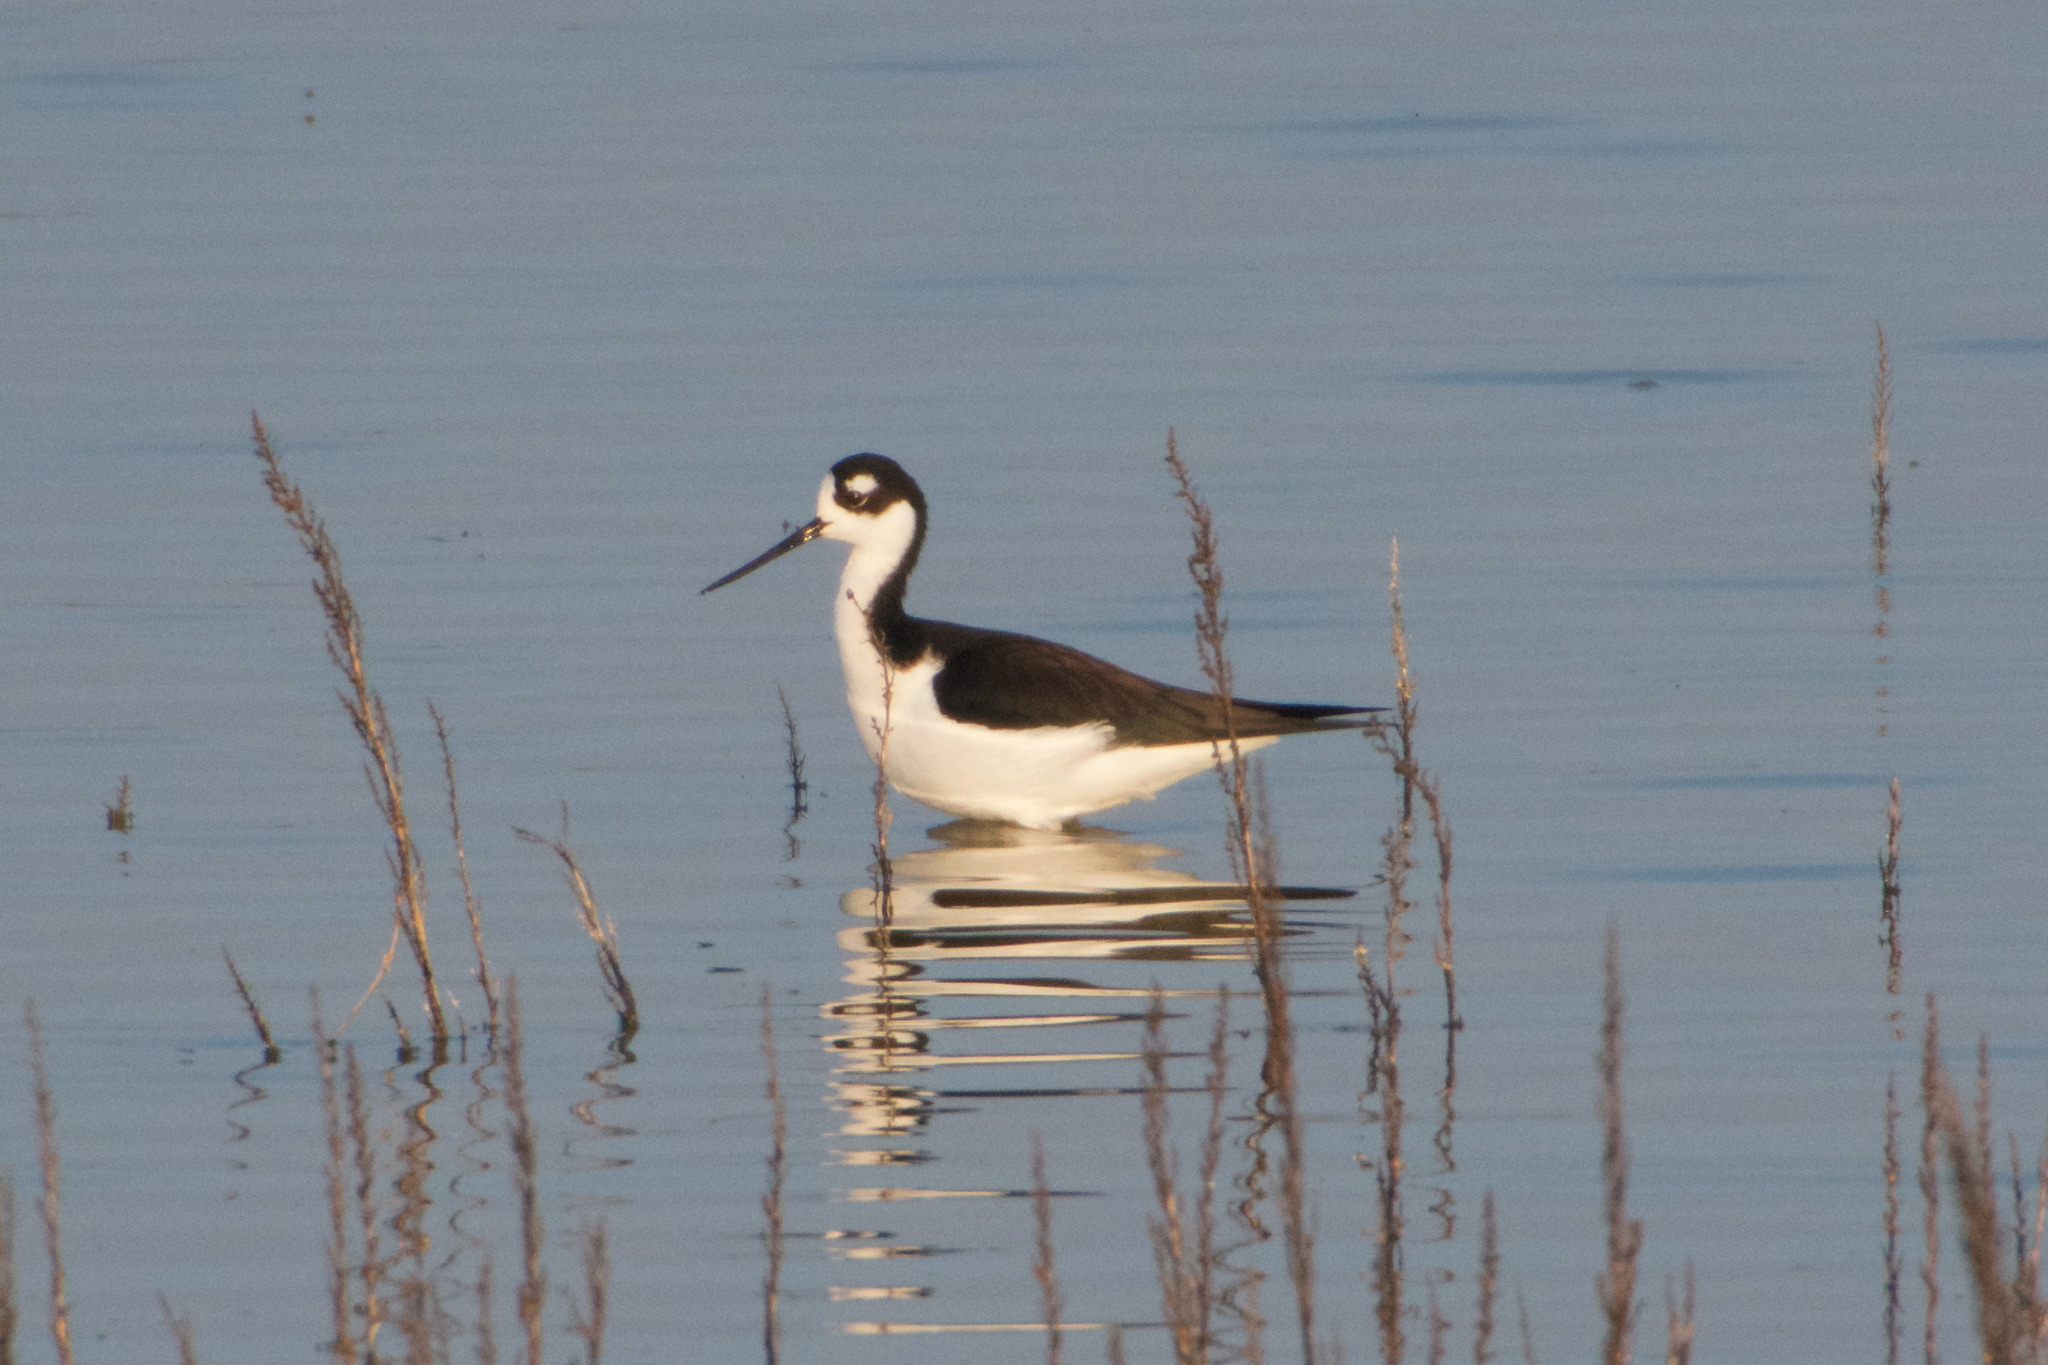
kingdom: Animalia
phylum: Chordata
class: Aves
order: Charadriiformes
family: Recurvirostridae
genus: Himantopus
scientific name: Himantopus mexicanus
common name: Black-necked stilt
